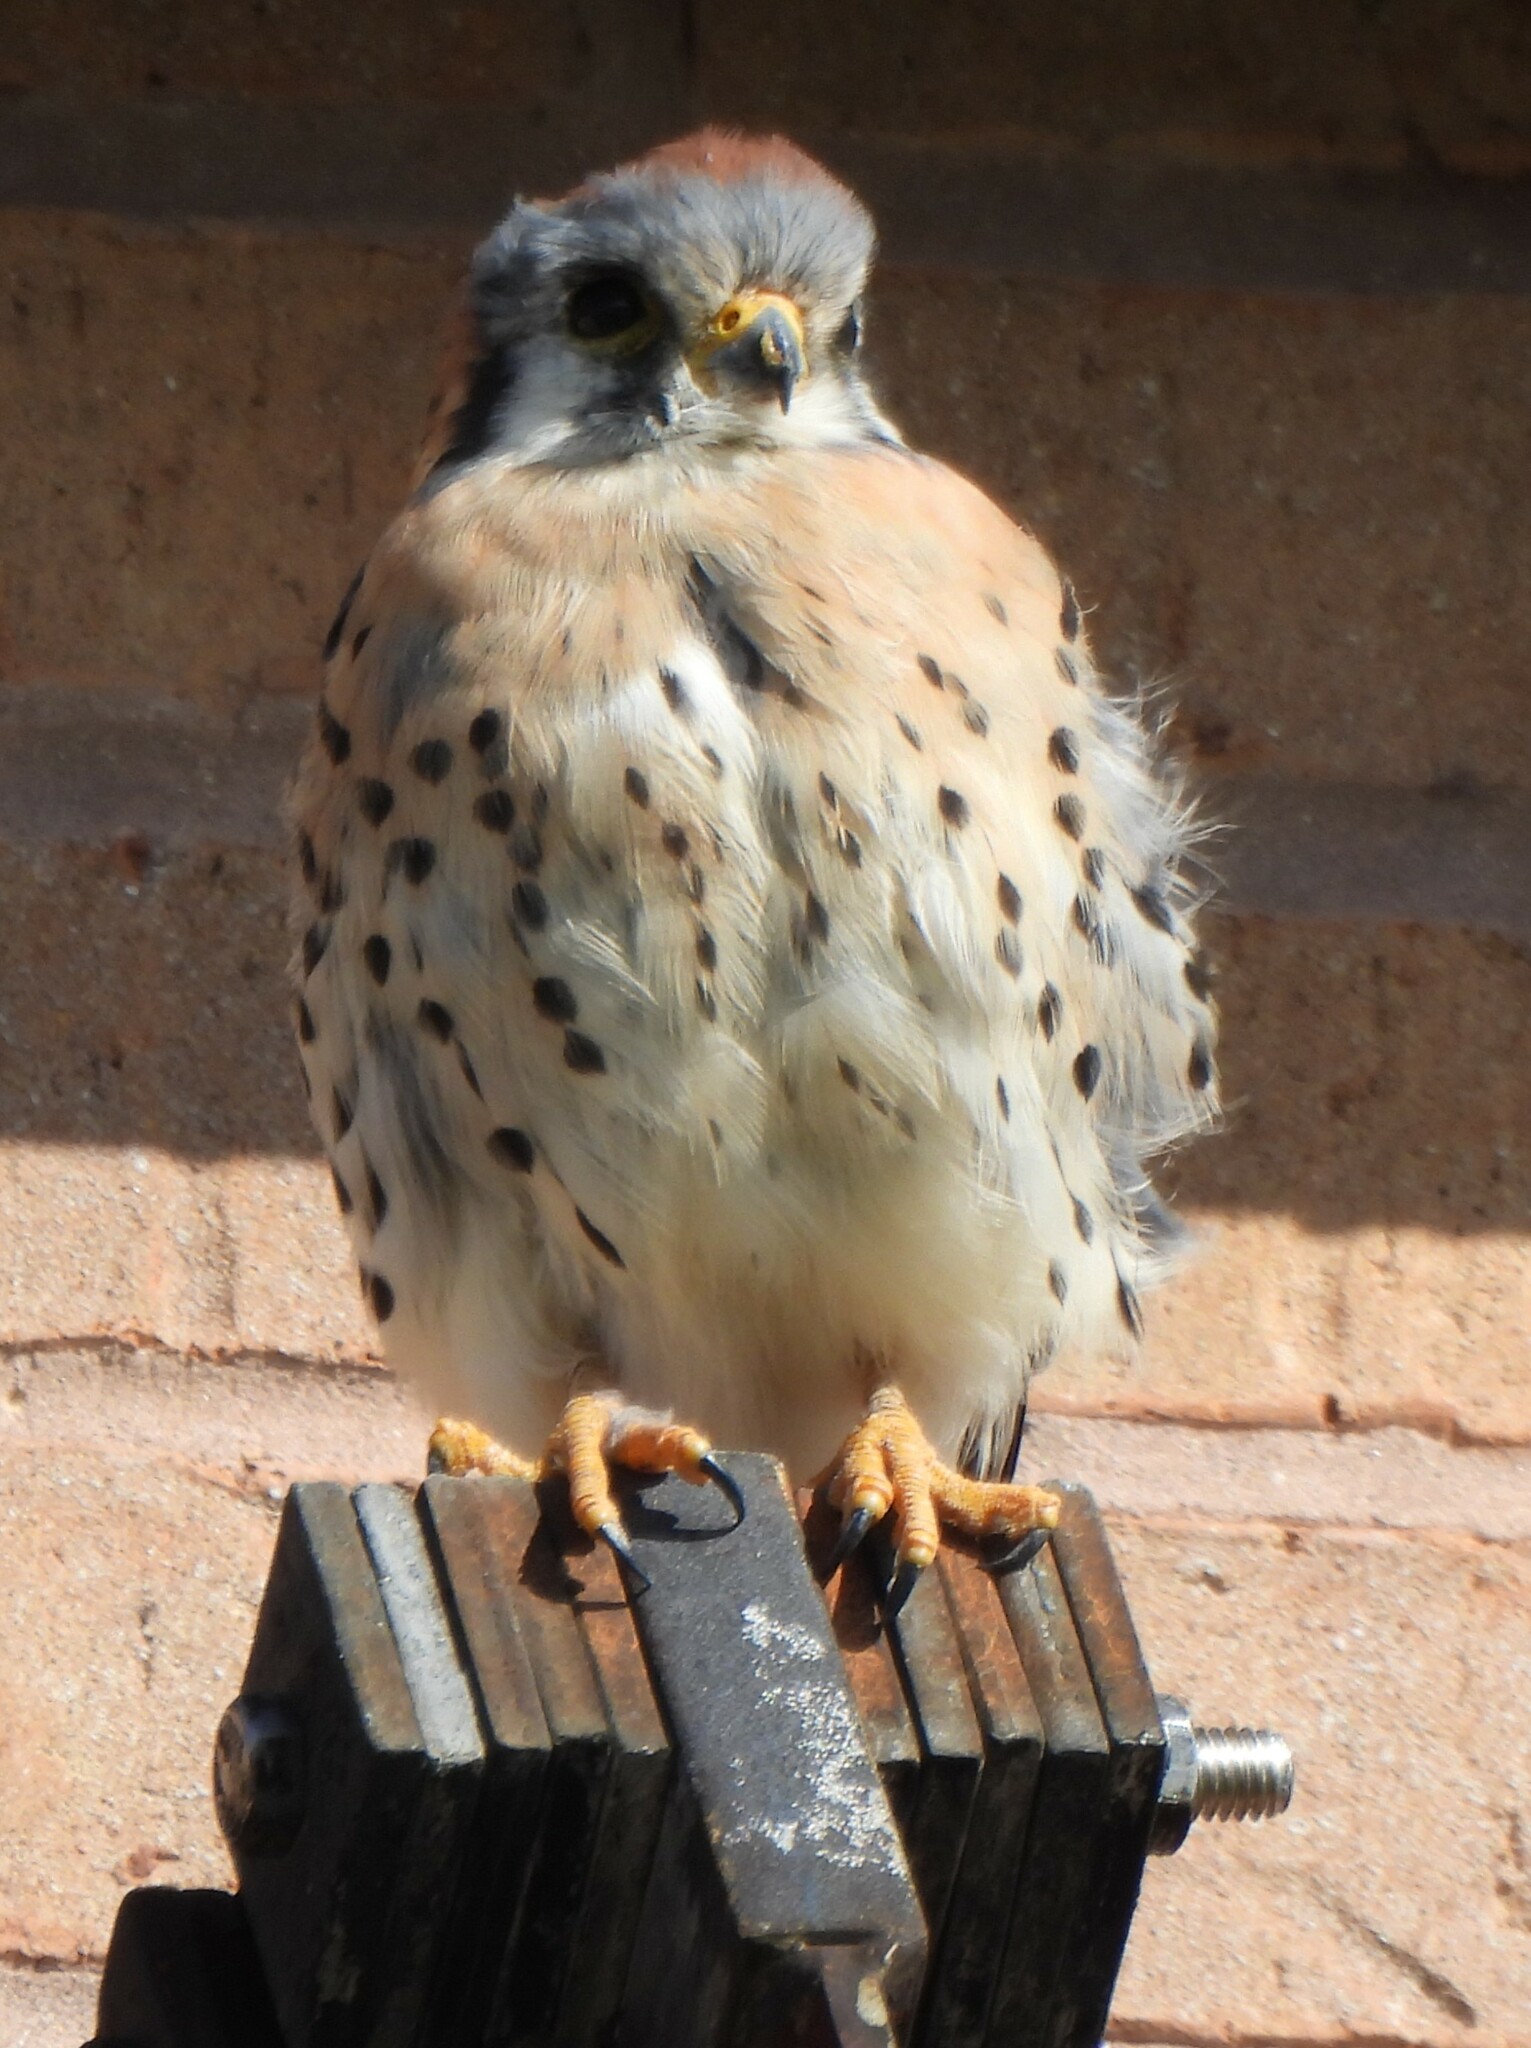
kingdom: Animalia
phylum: Chordata
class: Aves
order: Falconiformes
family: Falconidae
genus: Falco
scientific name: Falco sparverius
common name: American kestrel
